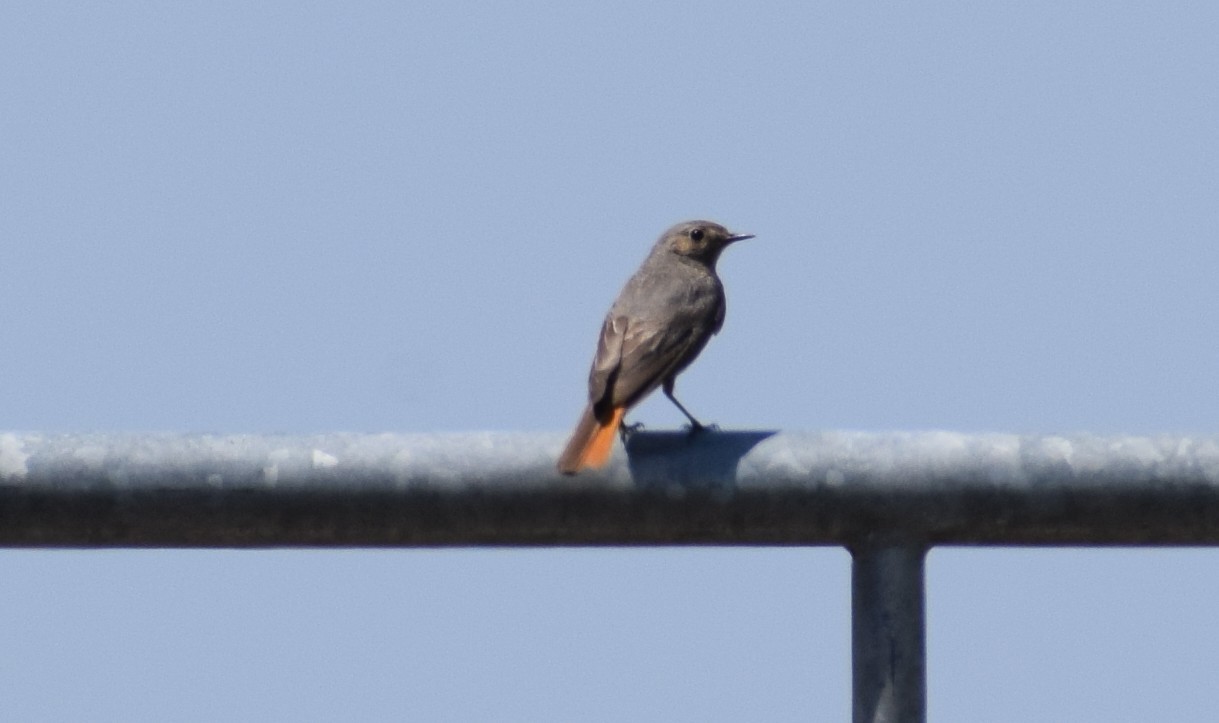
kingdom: Animalia
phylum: Chordata
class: Aves
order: Passeriformes
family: Muscicapidae
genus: Phoenicurus
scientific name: Phoenicurus ochruros
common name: Black redstart
